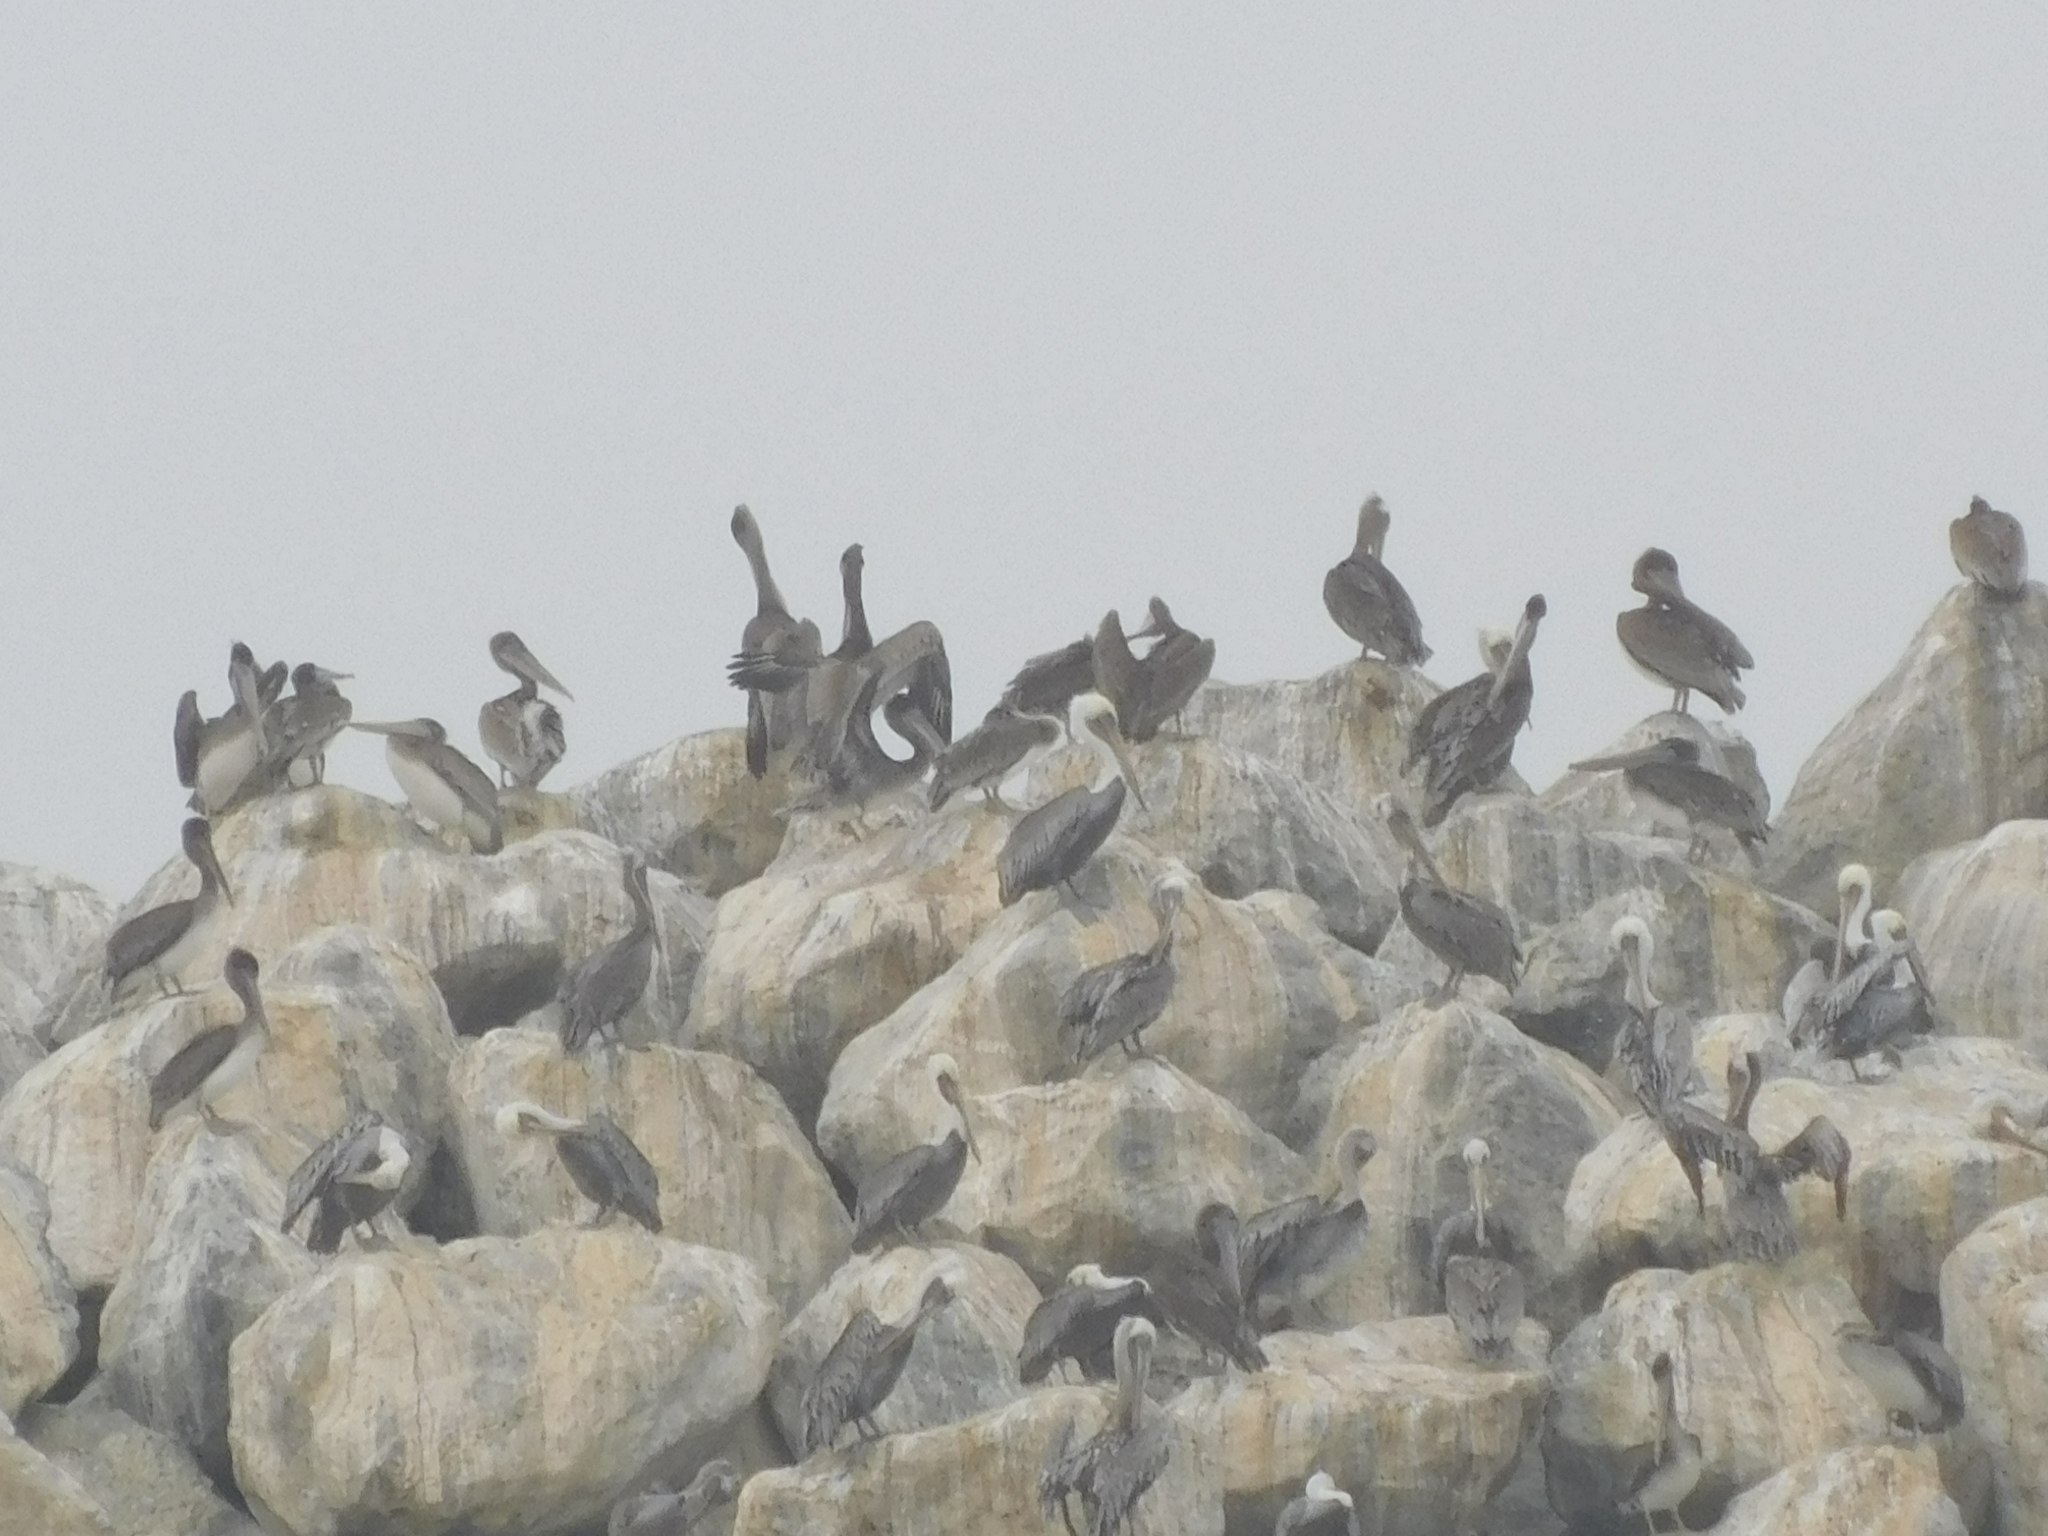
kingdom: Animalia
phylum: Chordata
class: Aves
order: Pelecaniformes
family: Pelecanidae
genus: Pelecanus
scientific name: Pelecanus occidentalis
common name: Brown pelican
